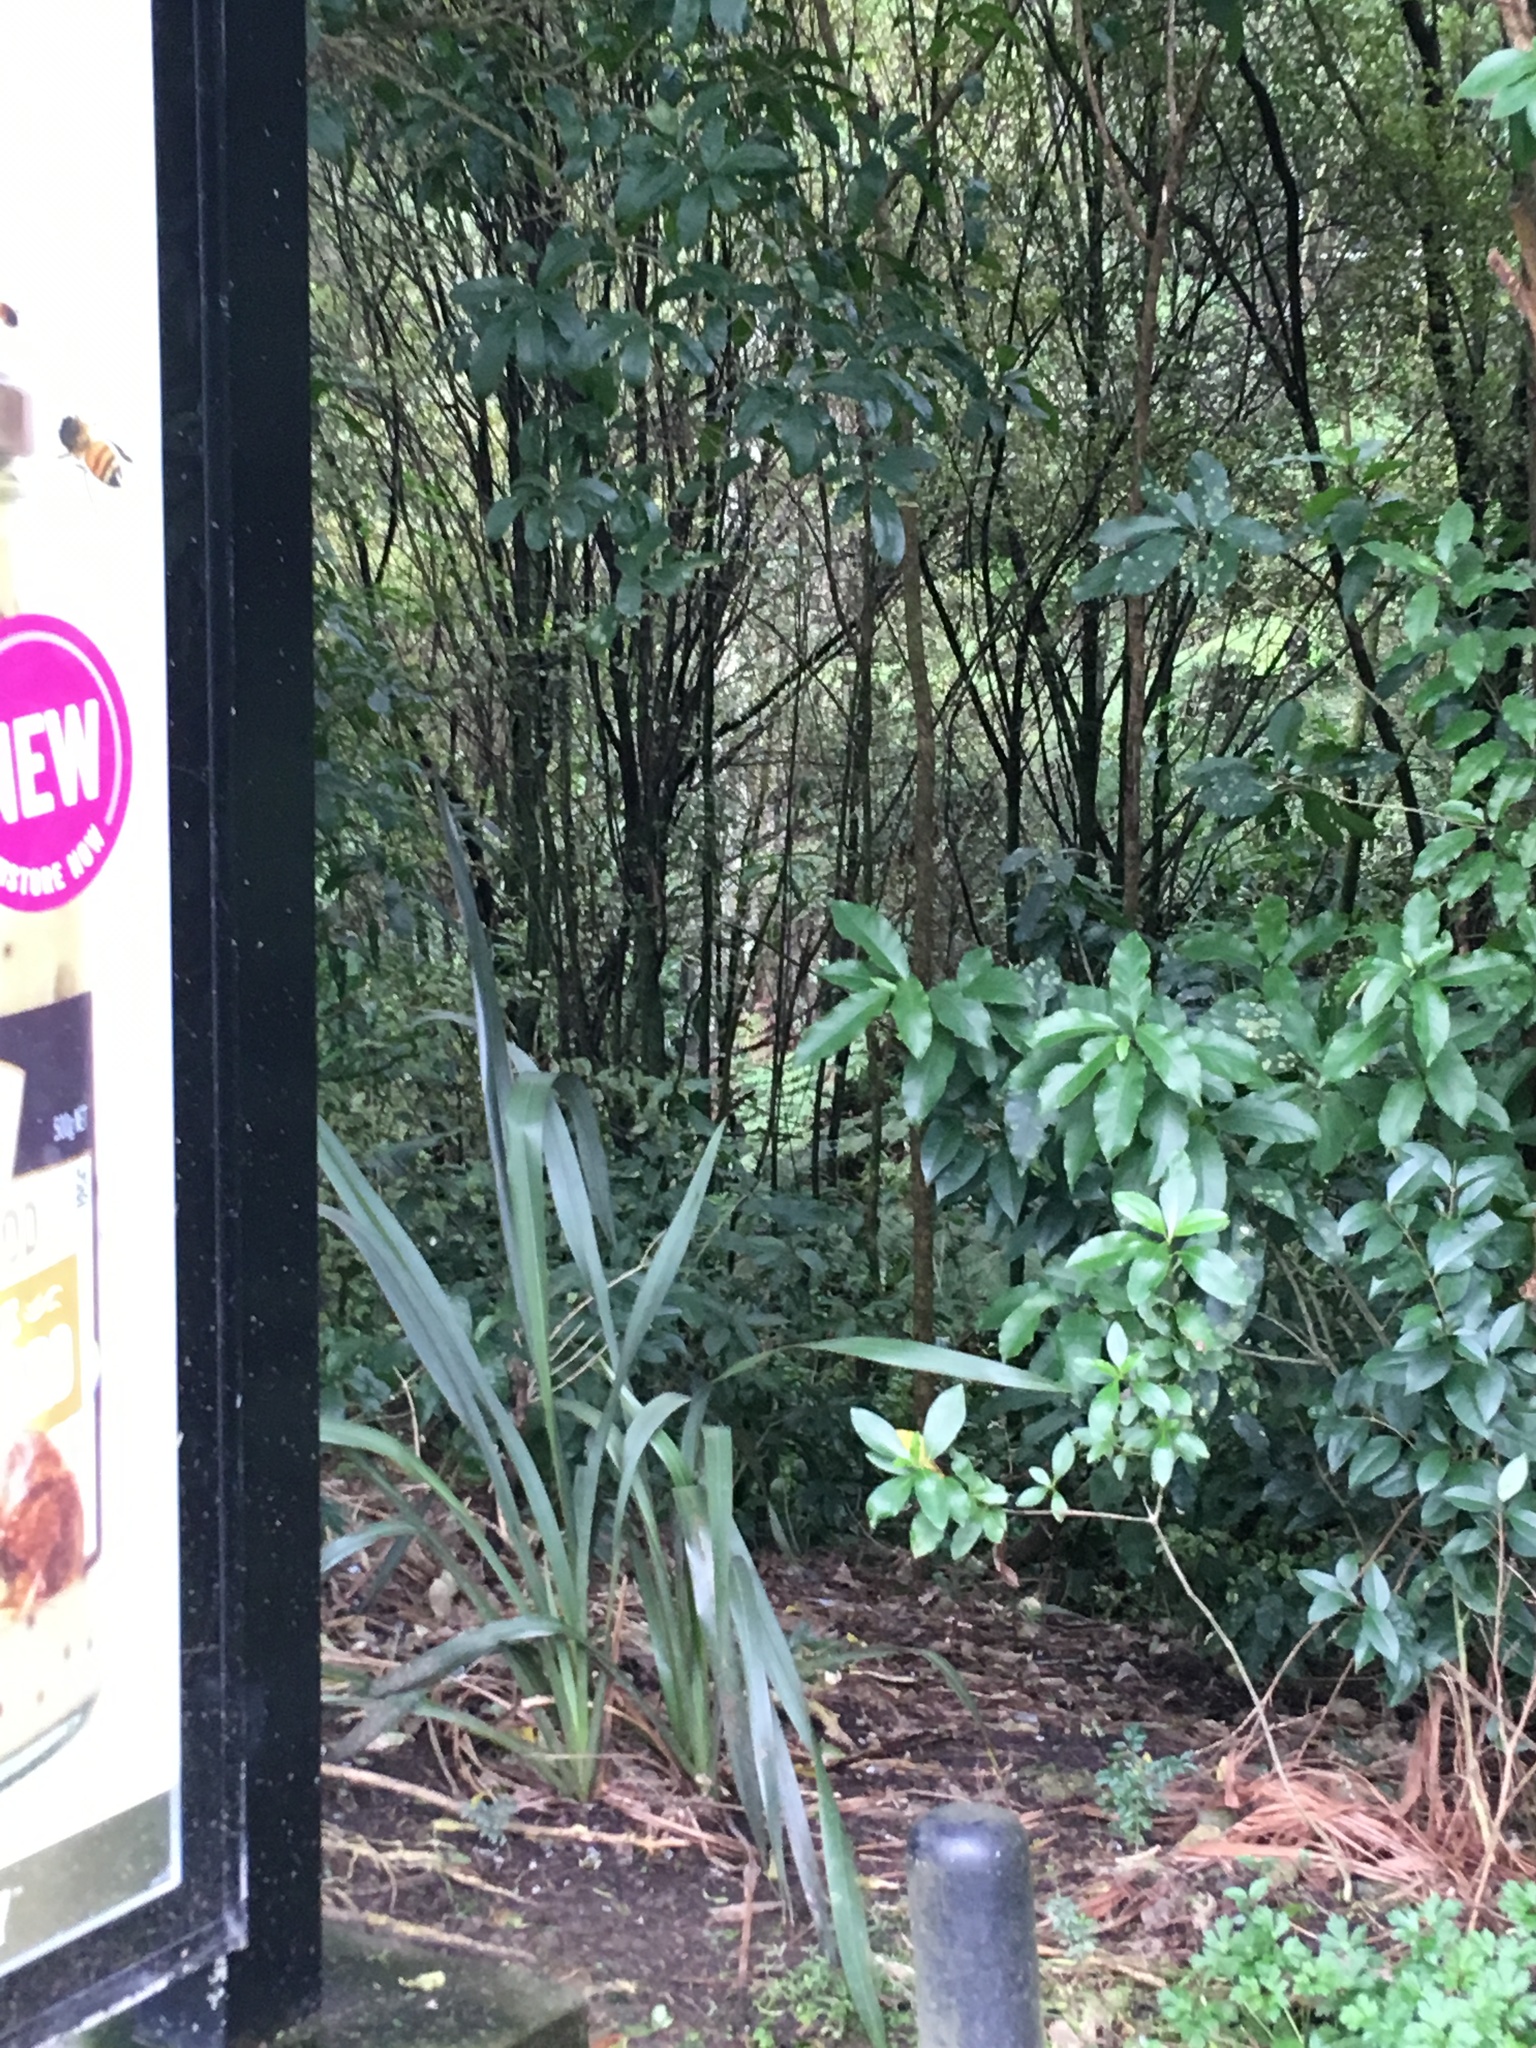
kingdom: Plantae
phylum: Tracheophyta
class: Magnoliopsida
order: Malpighiales
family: Violaceae
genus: Melicytus
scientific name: Melicytus ramiflorus
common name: Mahoe
